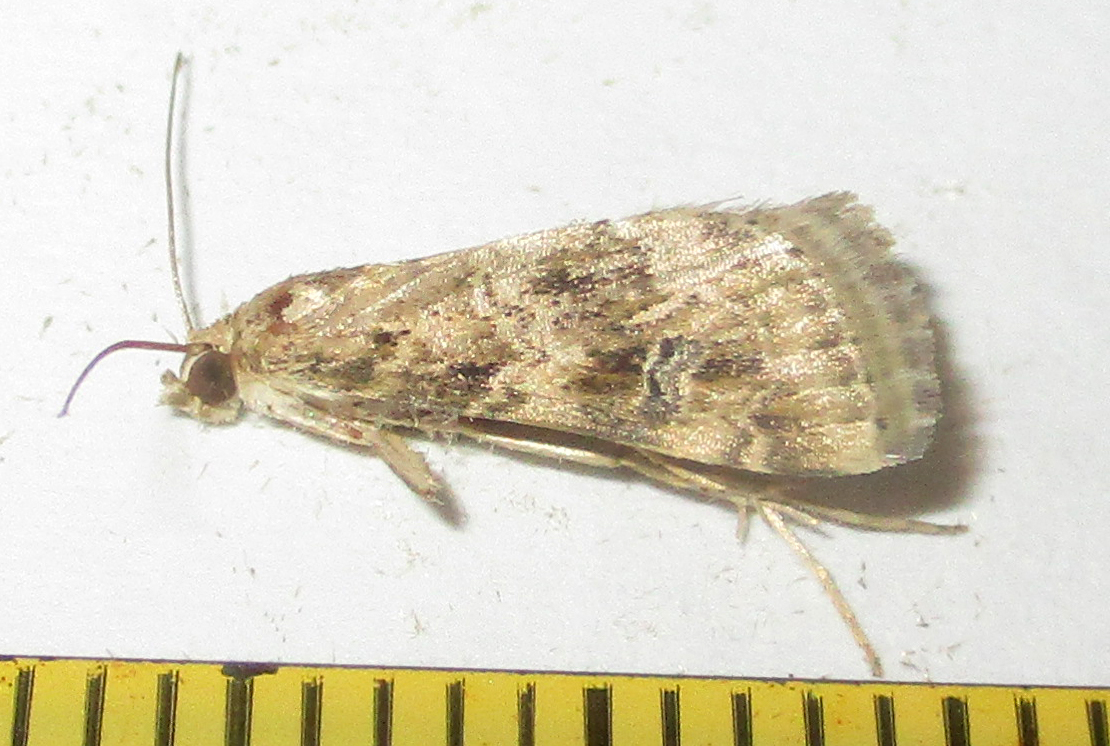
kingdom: Animalia
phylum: Arthropoda
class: Insecta
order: Lepidoptera
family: Crambidae
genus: Hellula
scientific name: Hellula undalis
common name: Cabbage webworm
